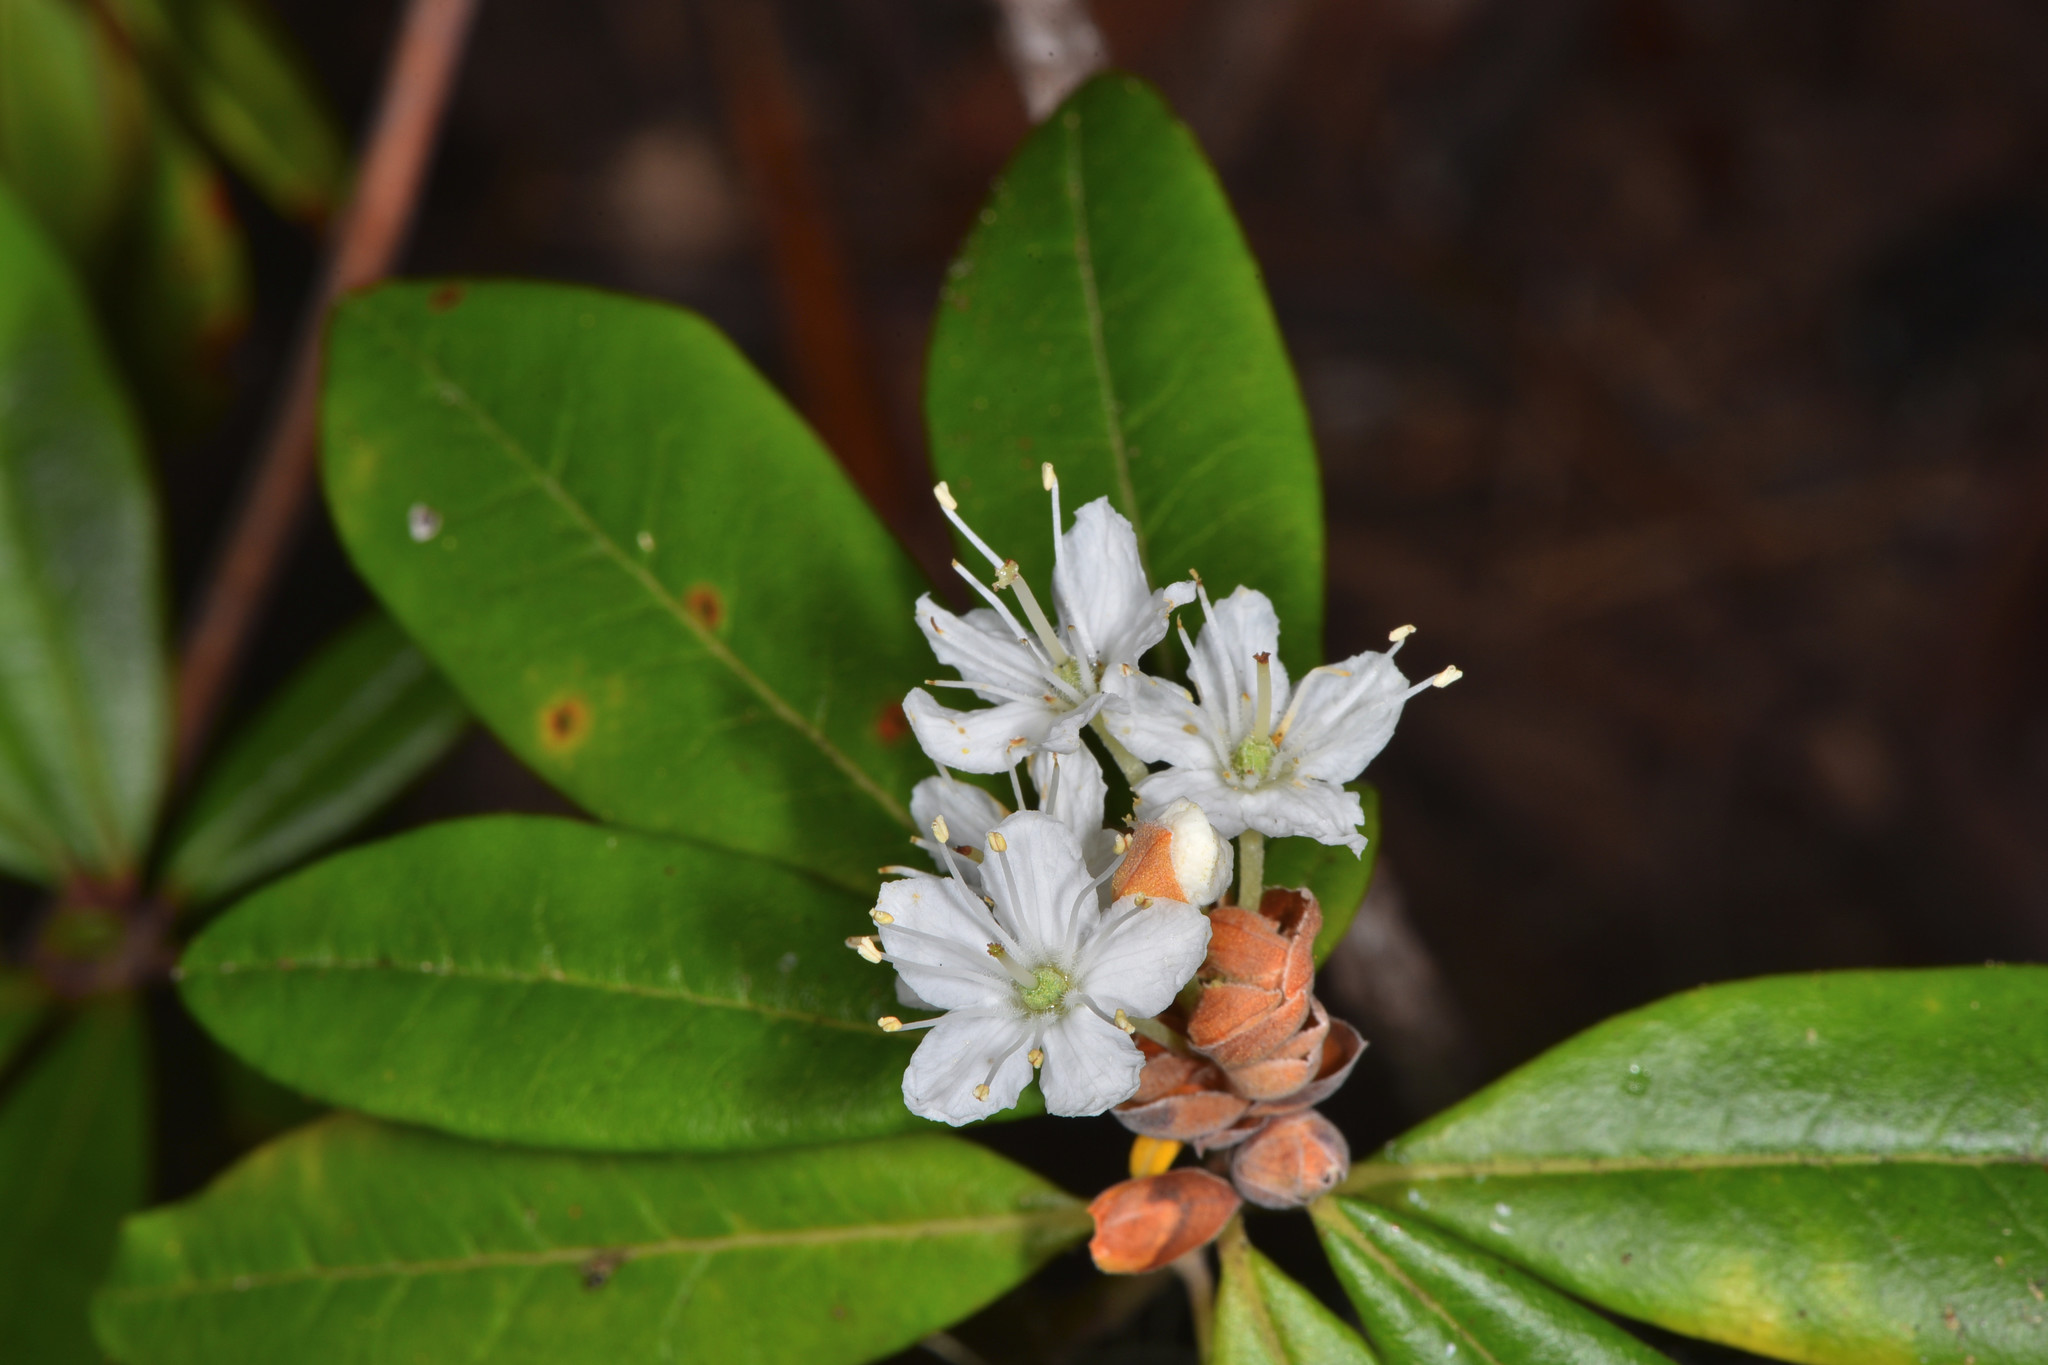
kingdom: Plantae
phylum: Tracheophyta
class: Magnoliopsida
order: Ericales
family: Ericaceae
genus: Rhododendron
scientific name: Rhododendron columbianum
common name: Western labrador tea
